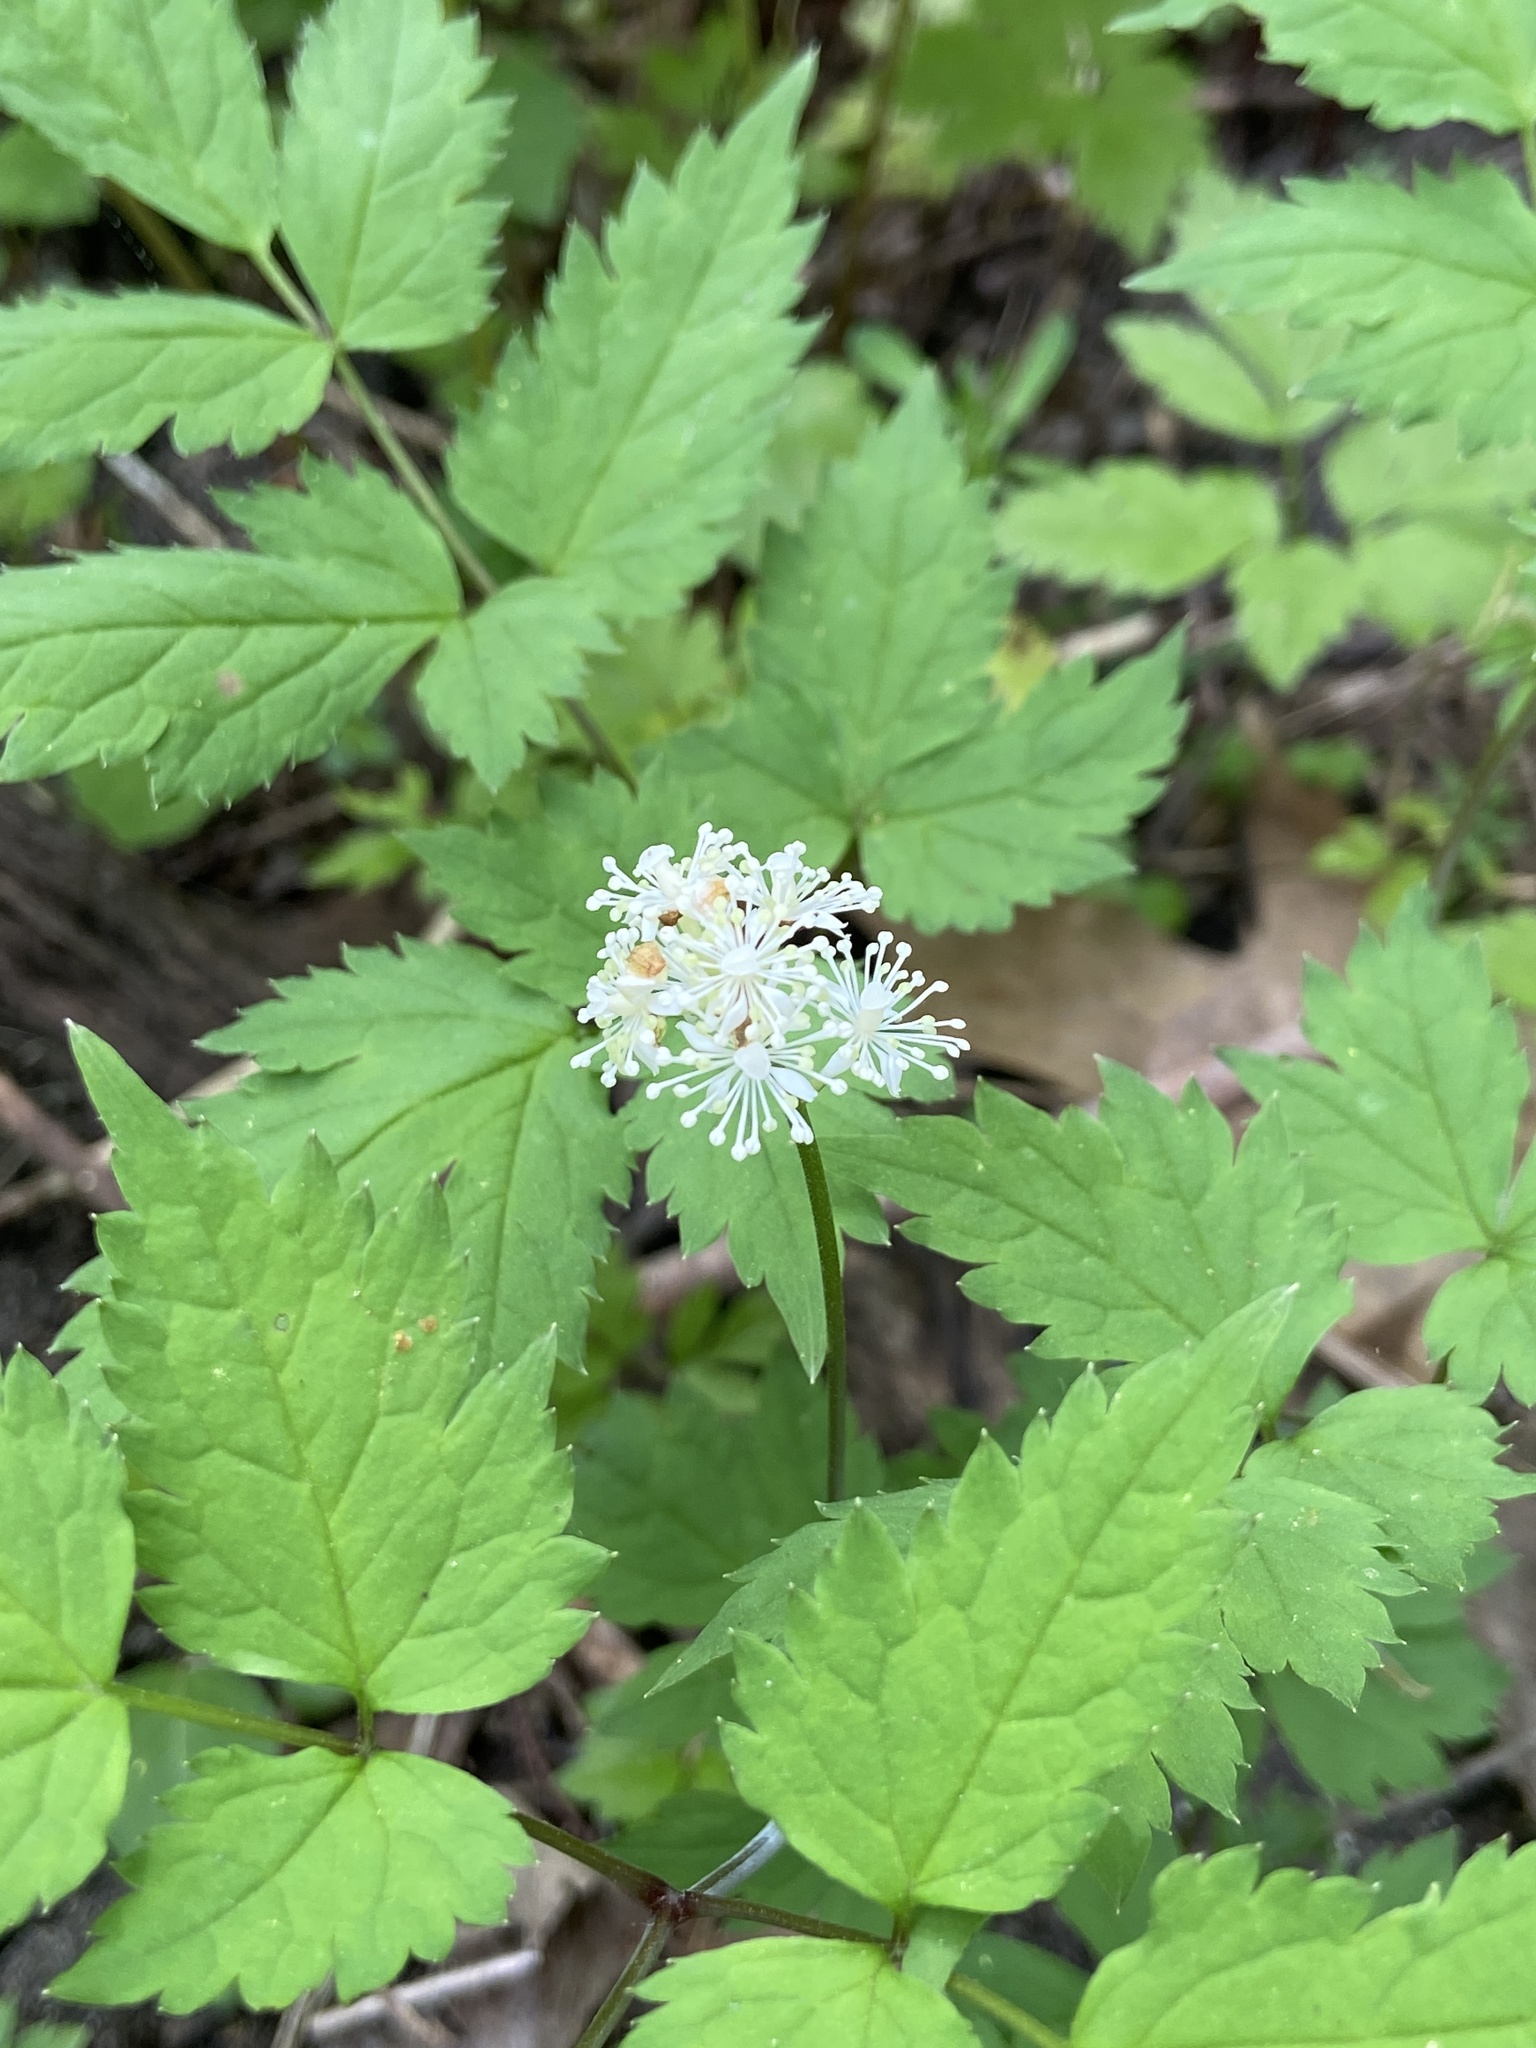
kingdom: Plantae
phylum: Tracheophyta
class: Magnoliopsida
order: Ranunculales
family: Ranunculaceae
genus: Actaea
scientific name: Actaea pachypoda
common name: Doll's-eyes
